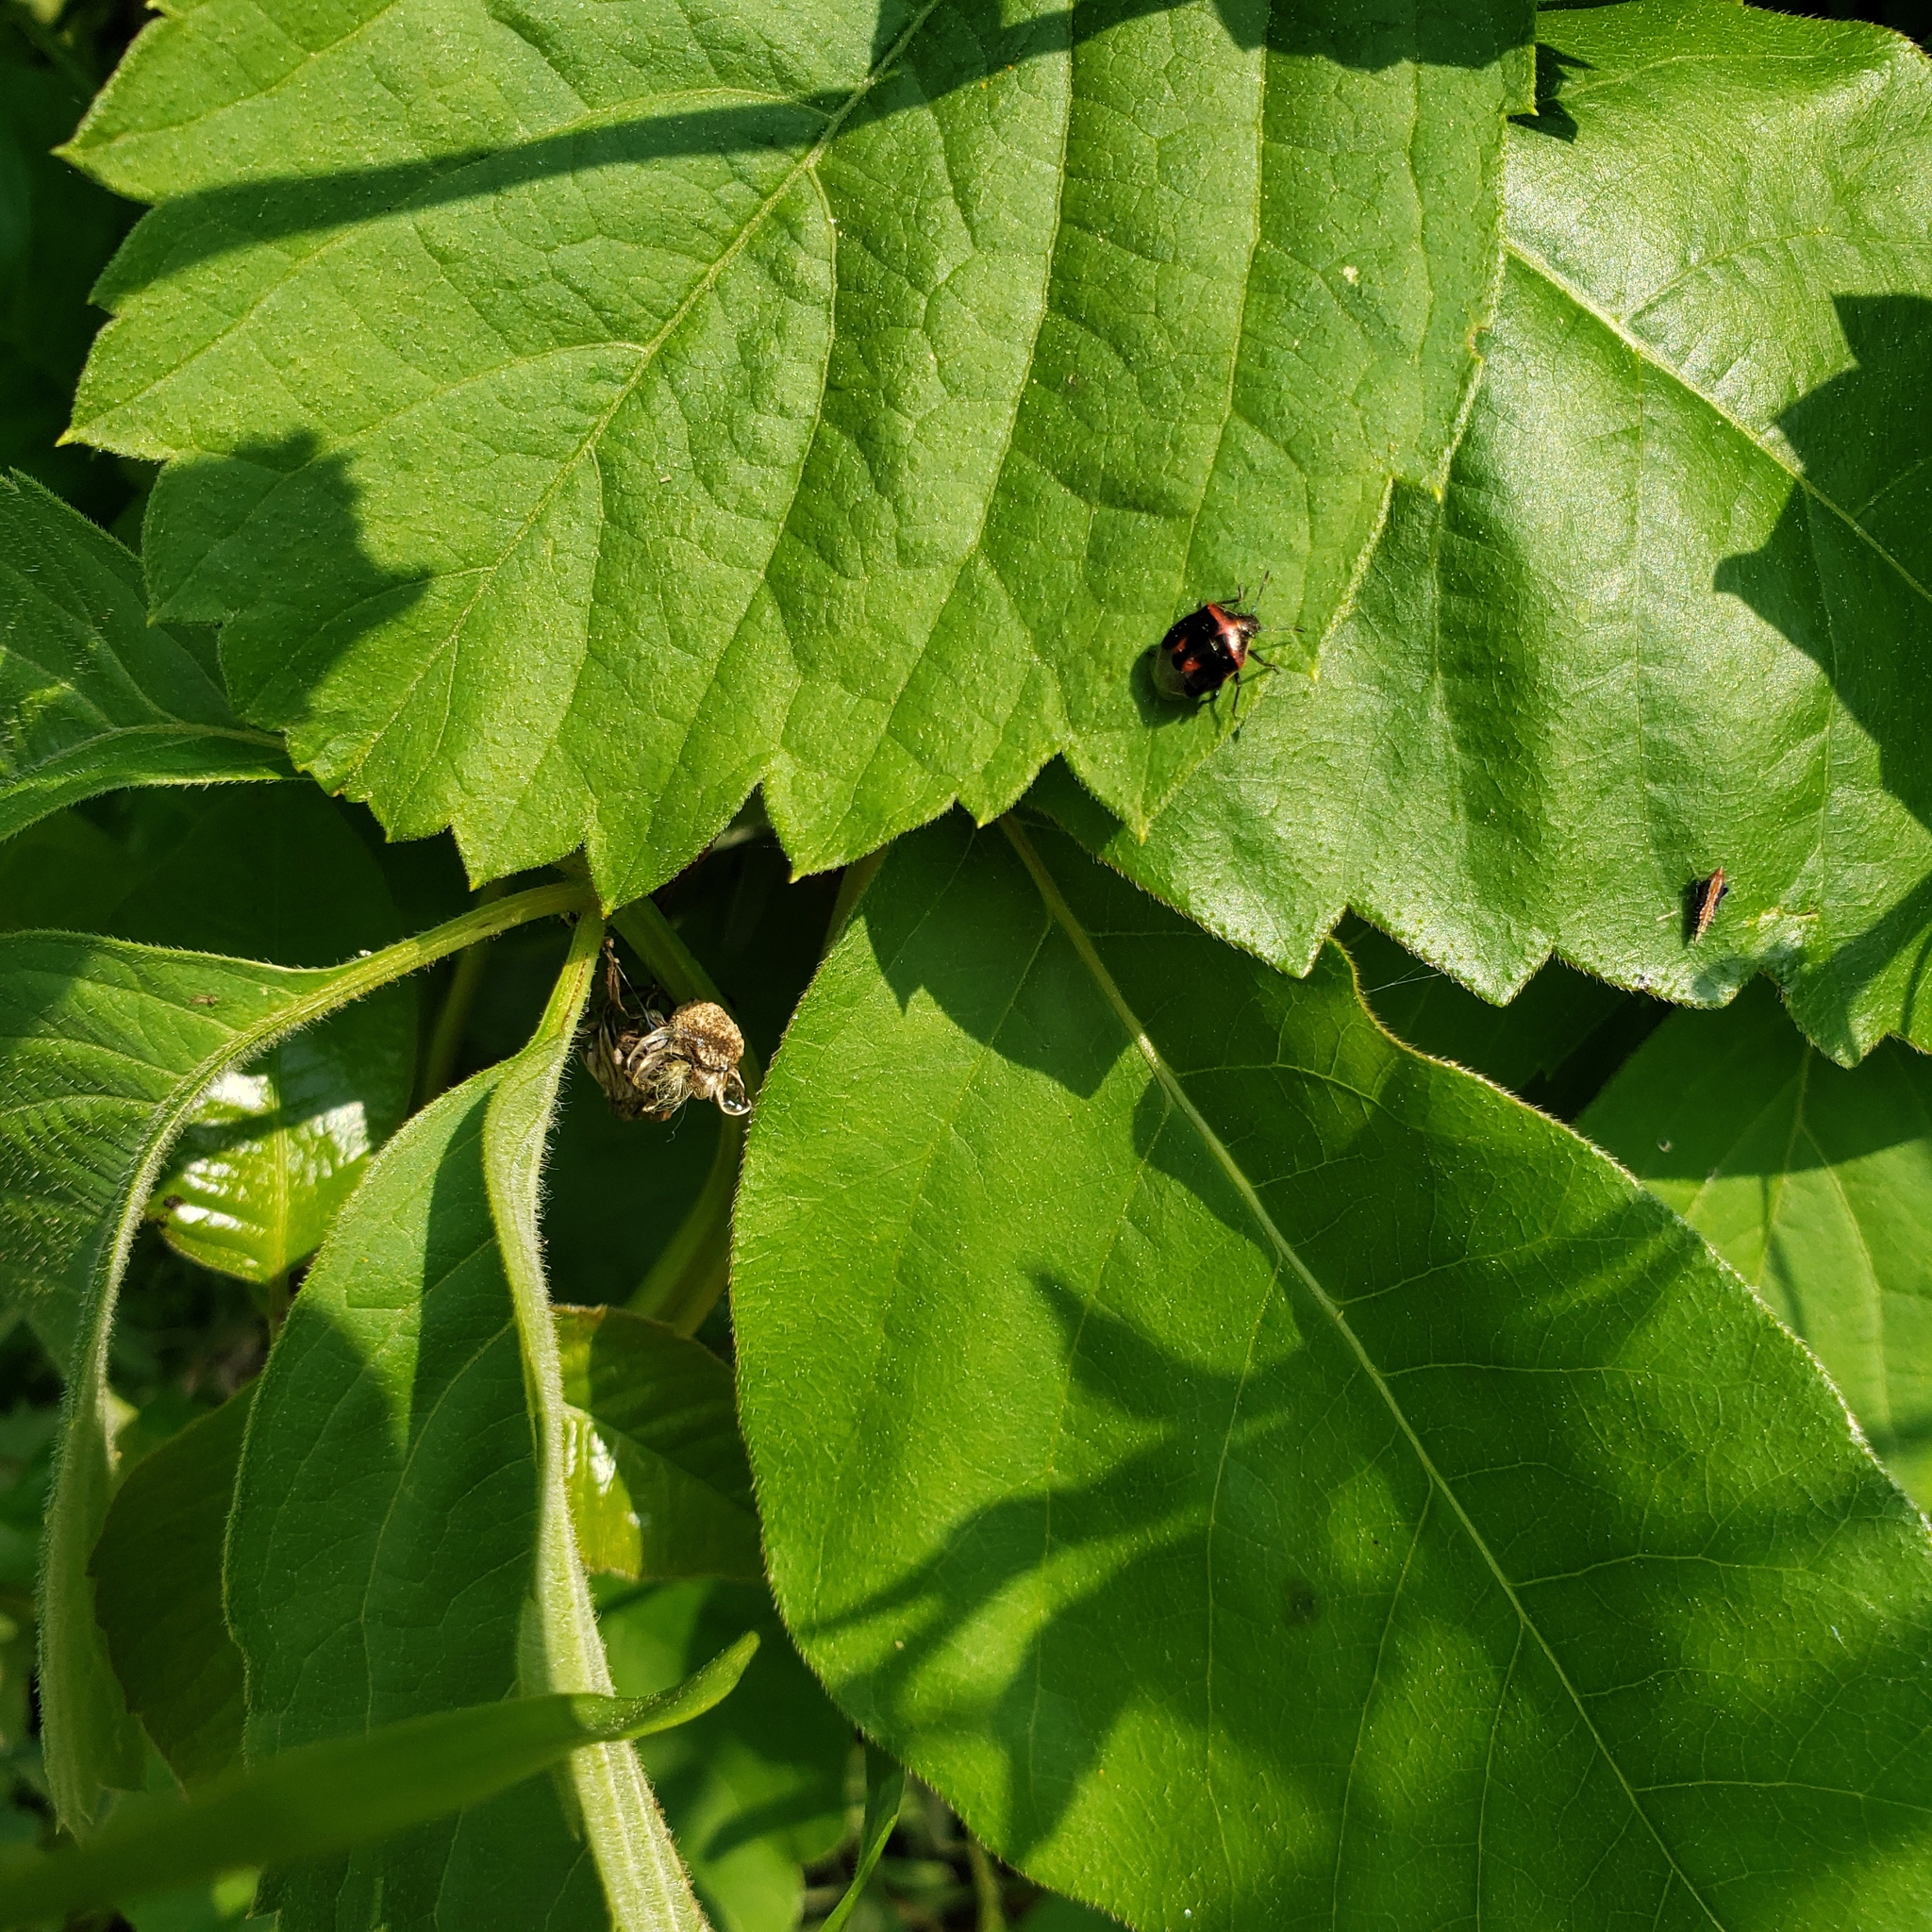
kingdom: Animalia
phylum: Arthropoda
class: Insecta
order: Hemiptera
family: Pentatomidae
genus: Cosmopepla
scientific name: Cosmopepla lintneriana
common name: Twice-stabbed stink bug
